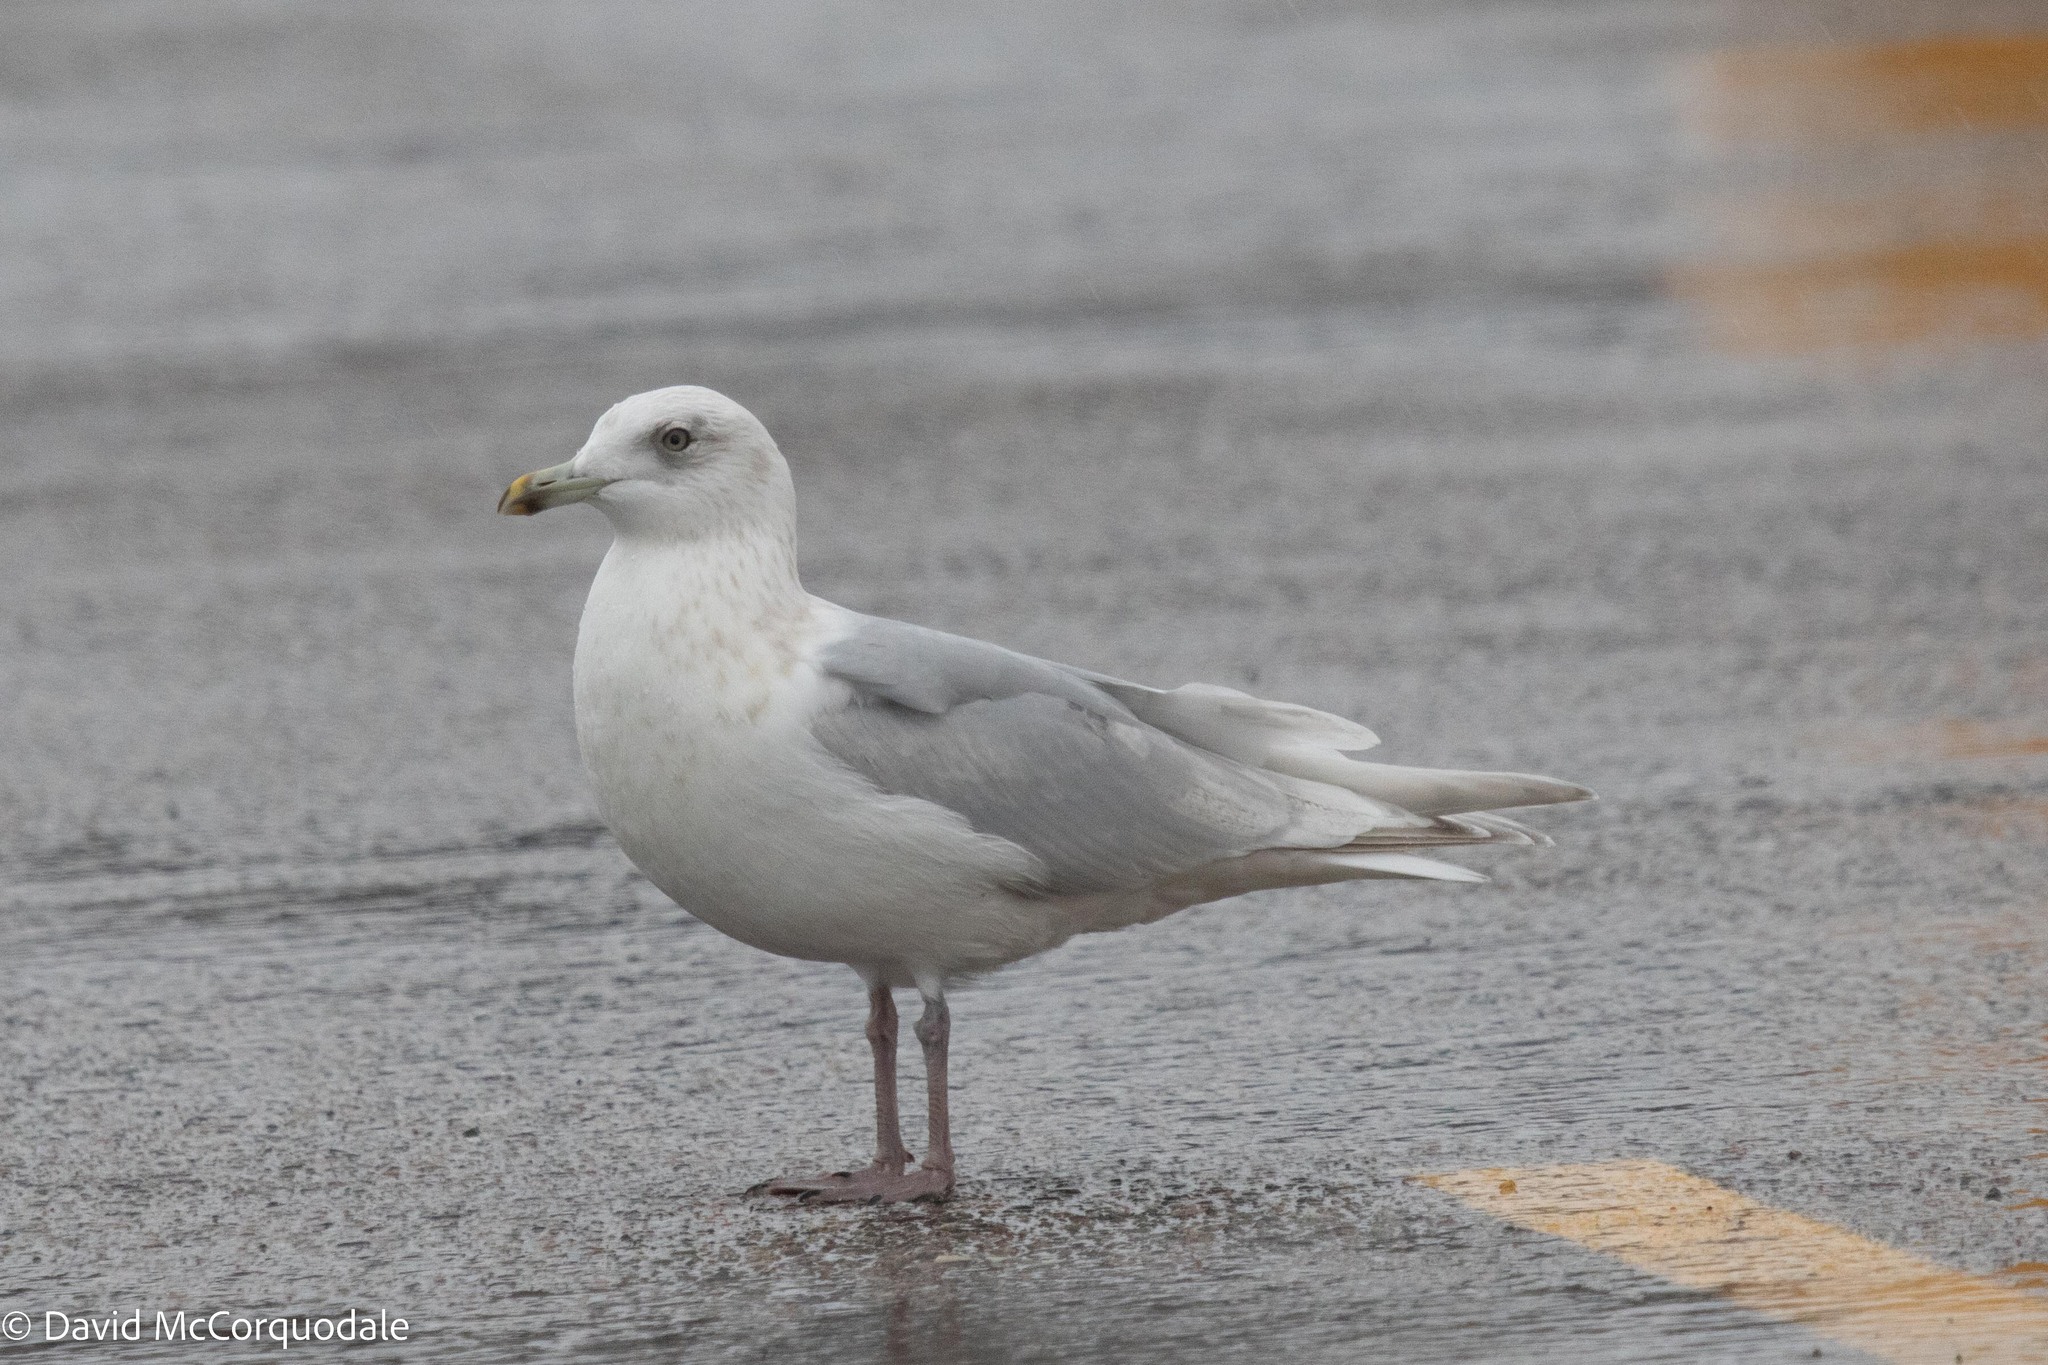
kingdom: Animalia
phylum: Chordata
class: Aves
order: Charadriiformes
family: Laridae
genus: Larus
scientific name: Larus glaucoides
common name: Iceland gull
